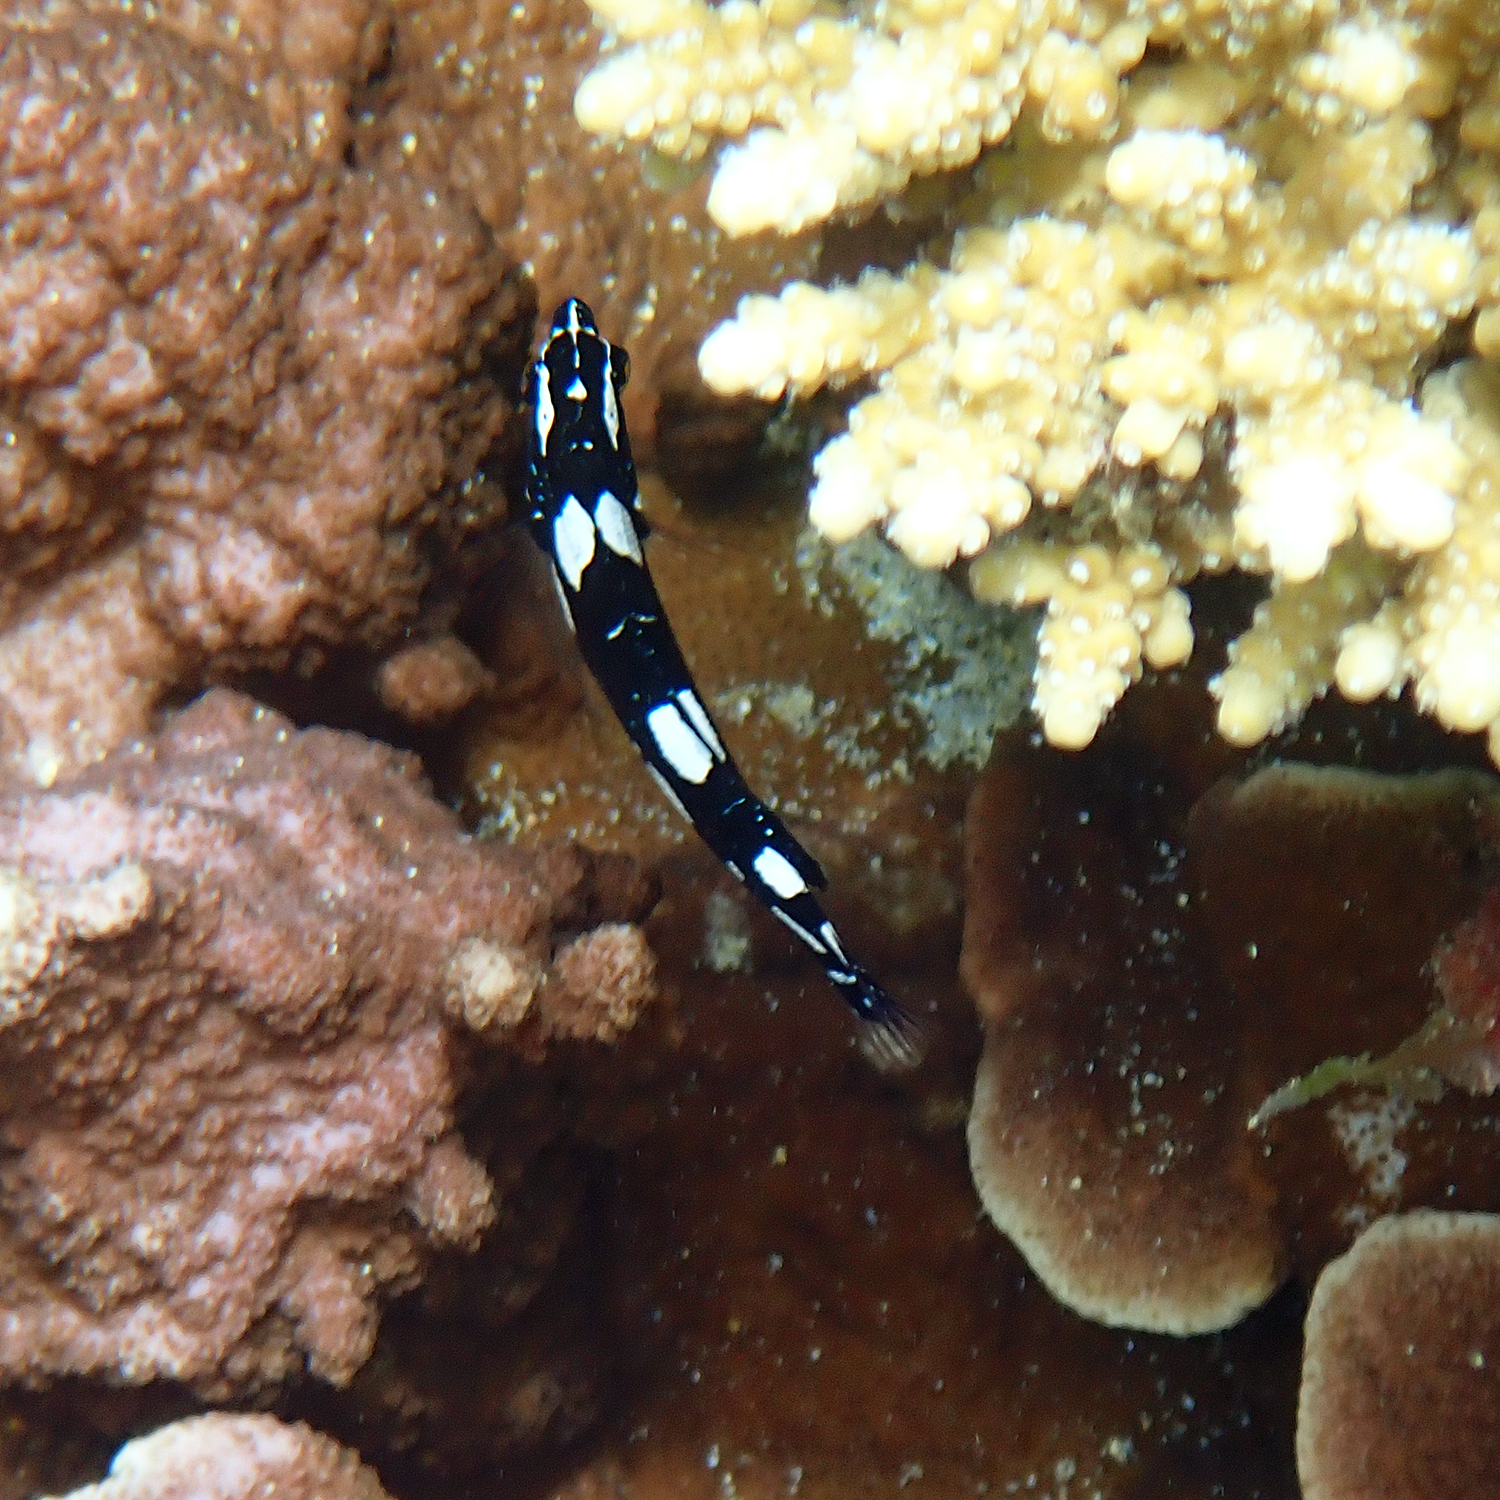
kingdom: Animalia
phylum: Chordata
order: Perciformes
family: Labridae
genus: Coris
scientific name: Coris bulbifrons
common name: Doubleheader
